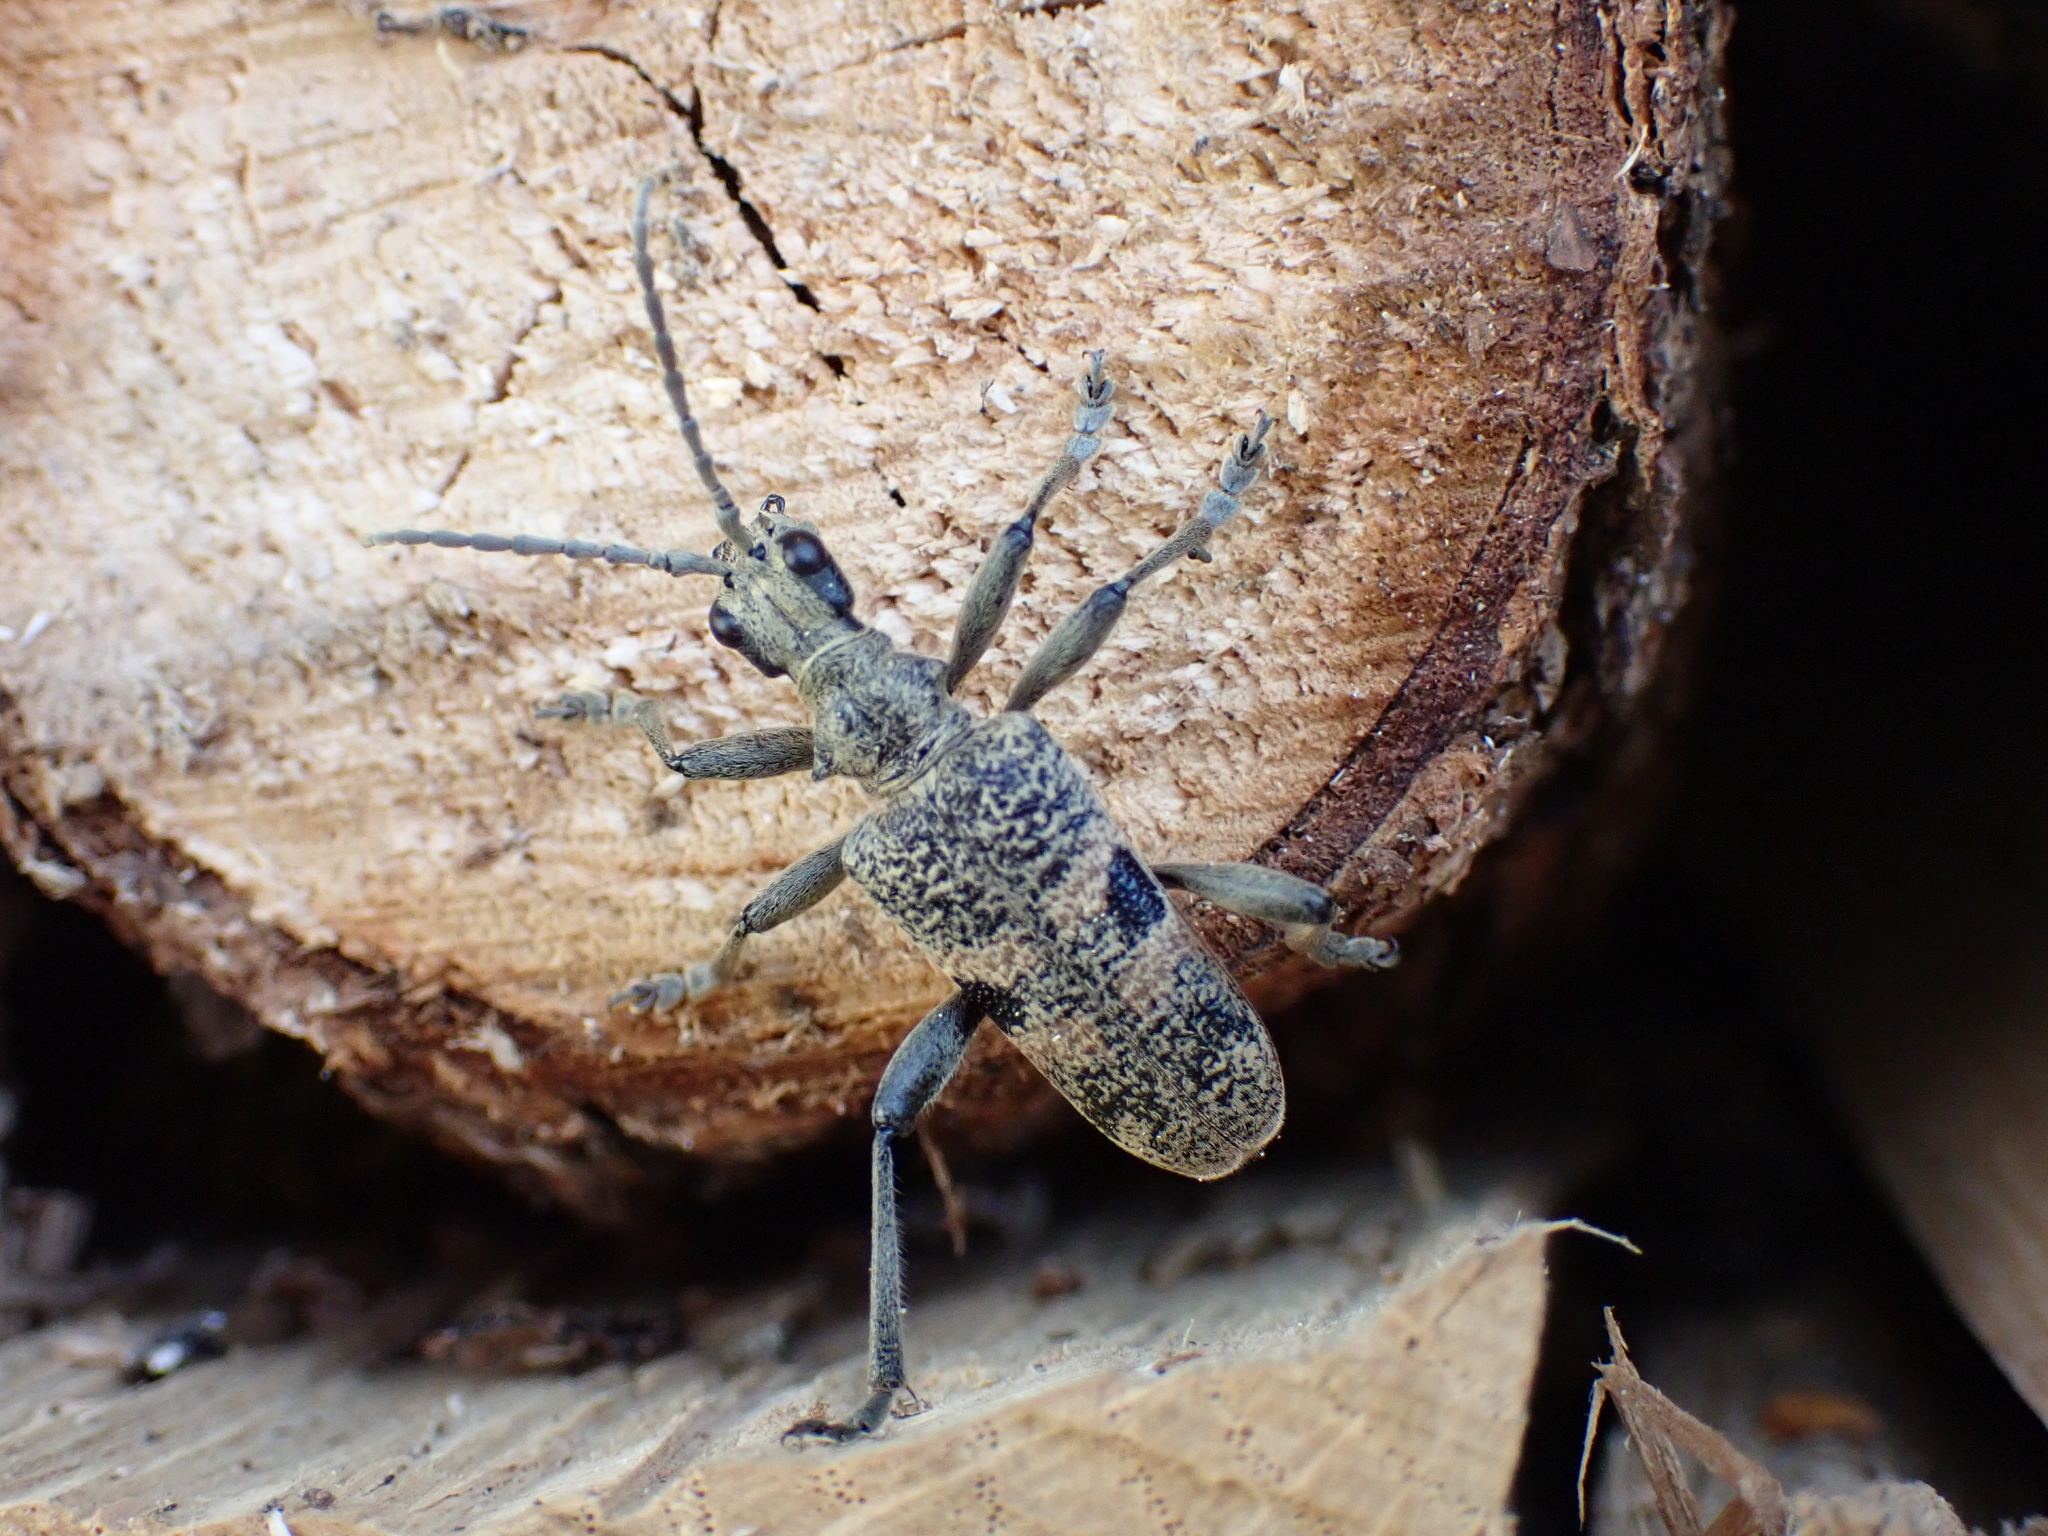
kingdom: Animalia
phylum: Arthropoda
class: Insecta
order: Coleoptera
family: Cerambycidae
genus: Rhagium
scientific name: Rhagium mordax
